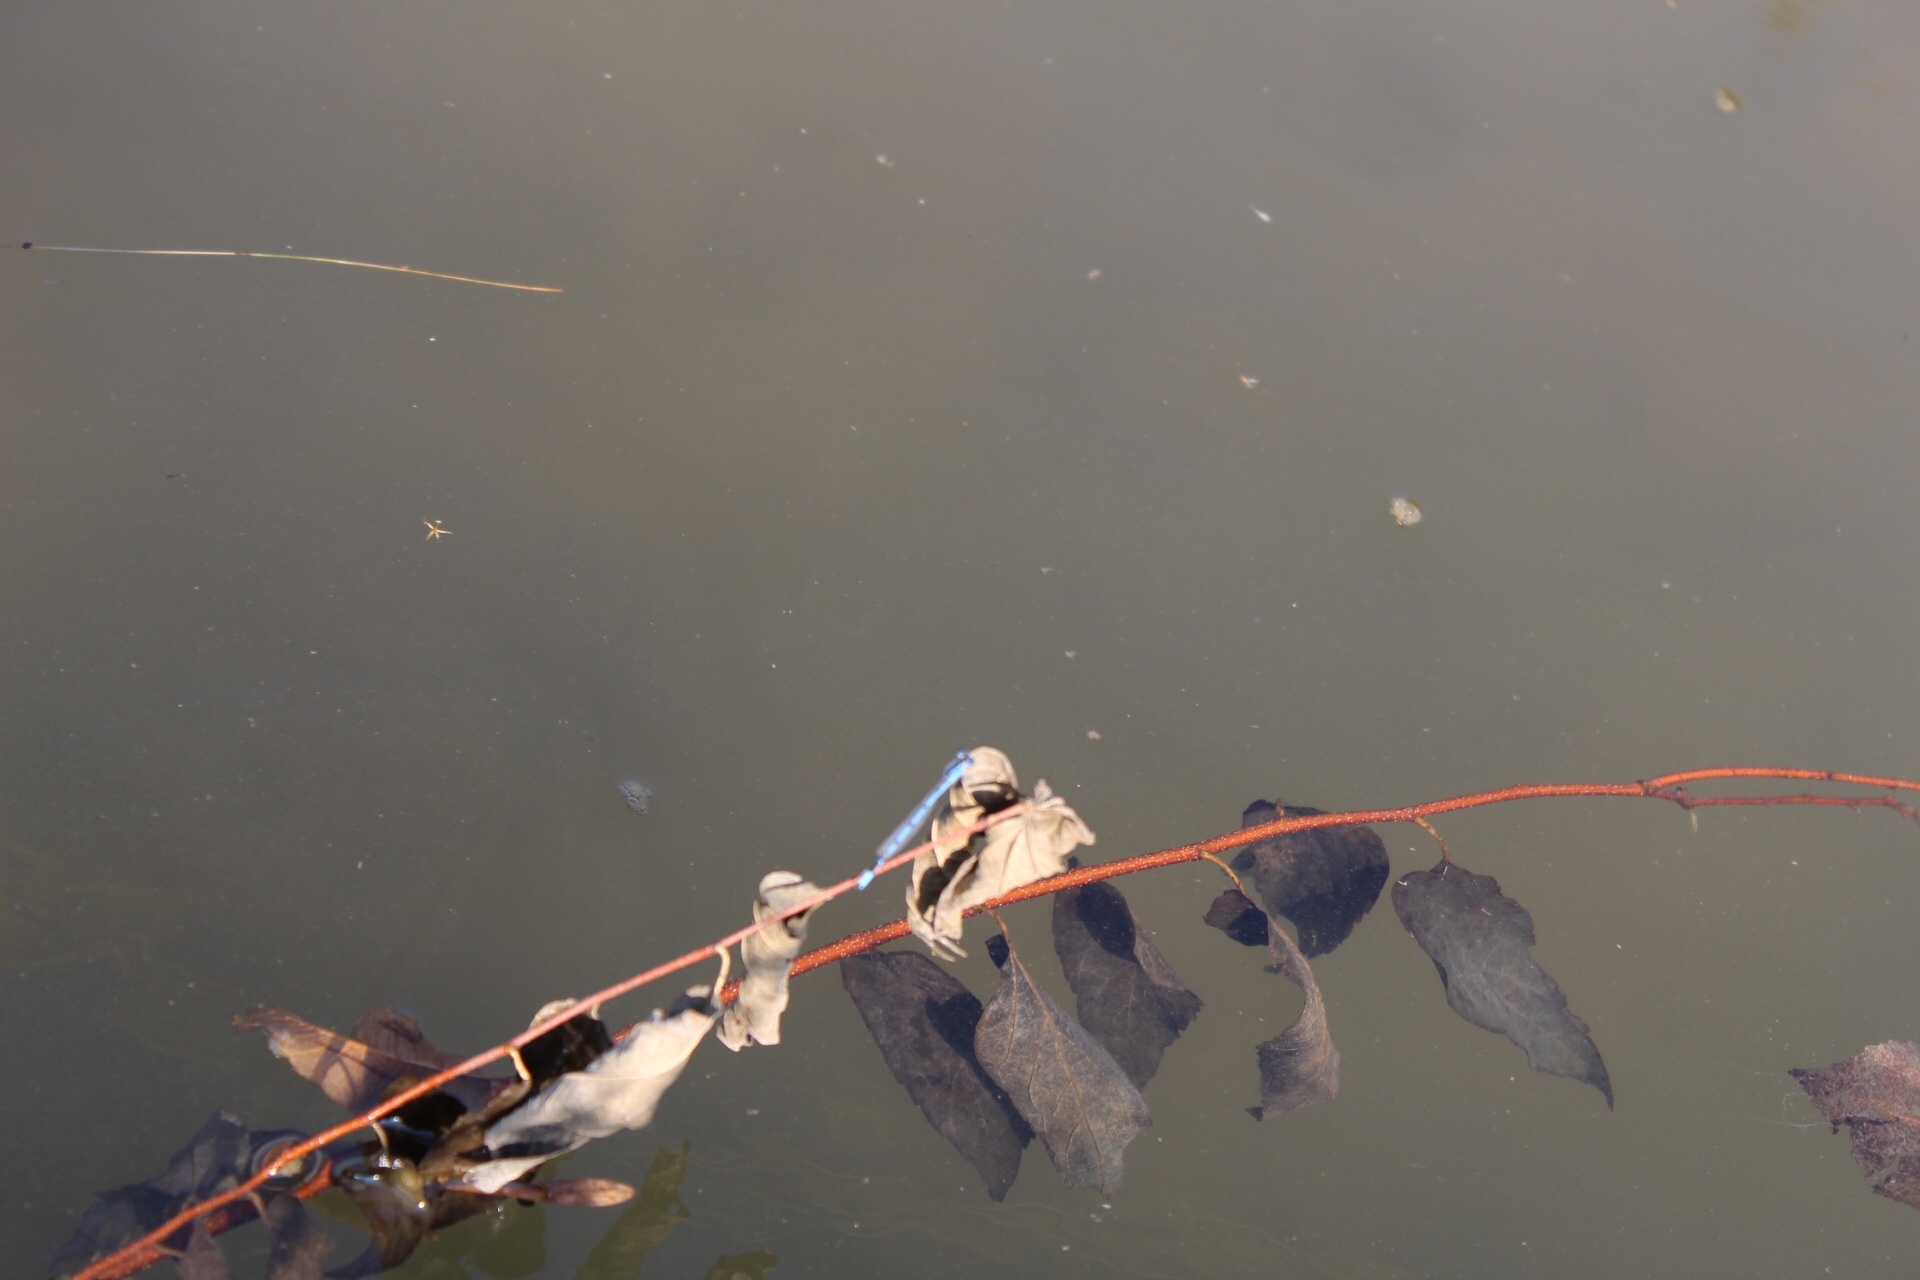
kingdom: Animalia
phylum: Arthropoda
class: Insecta
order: Odonata
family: Coenagrionidae
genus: Enallagma
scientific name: Enallagma civile
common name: Damselfly
